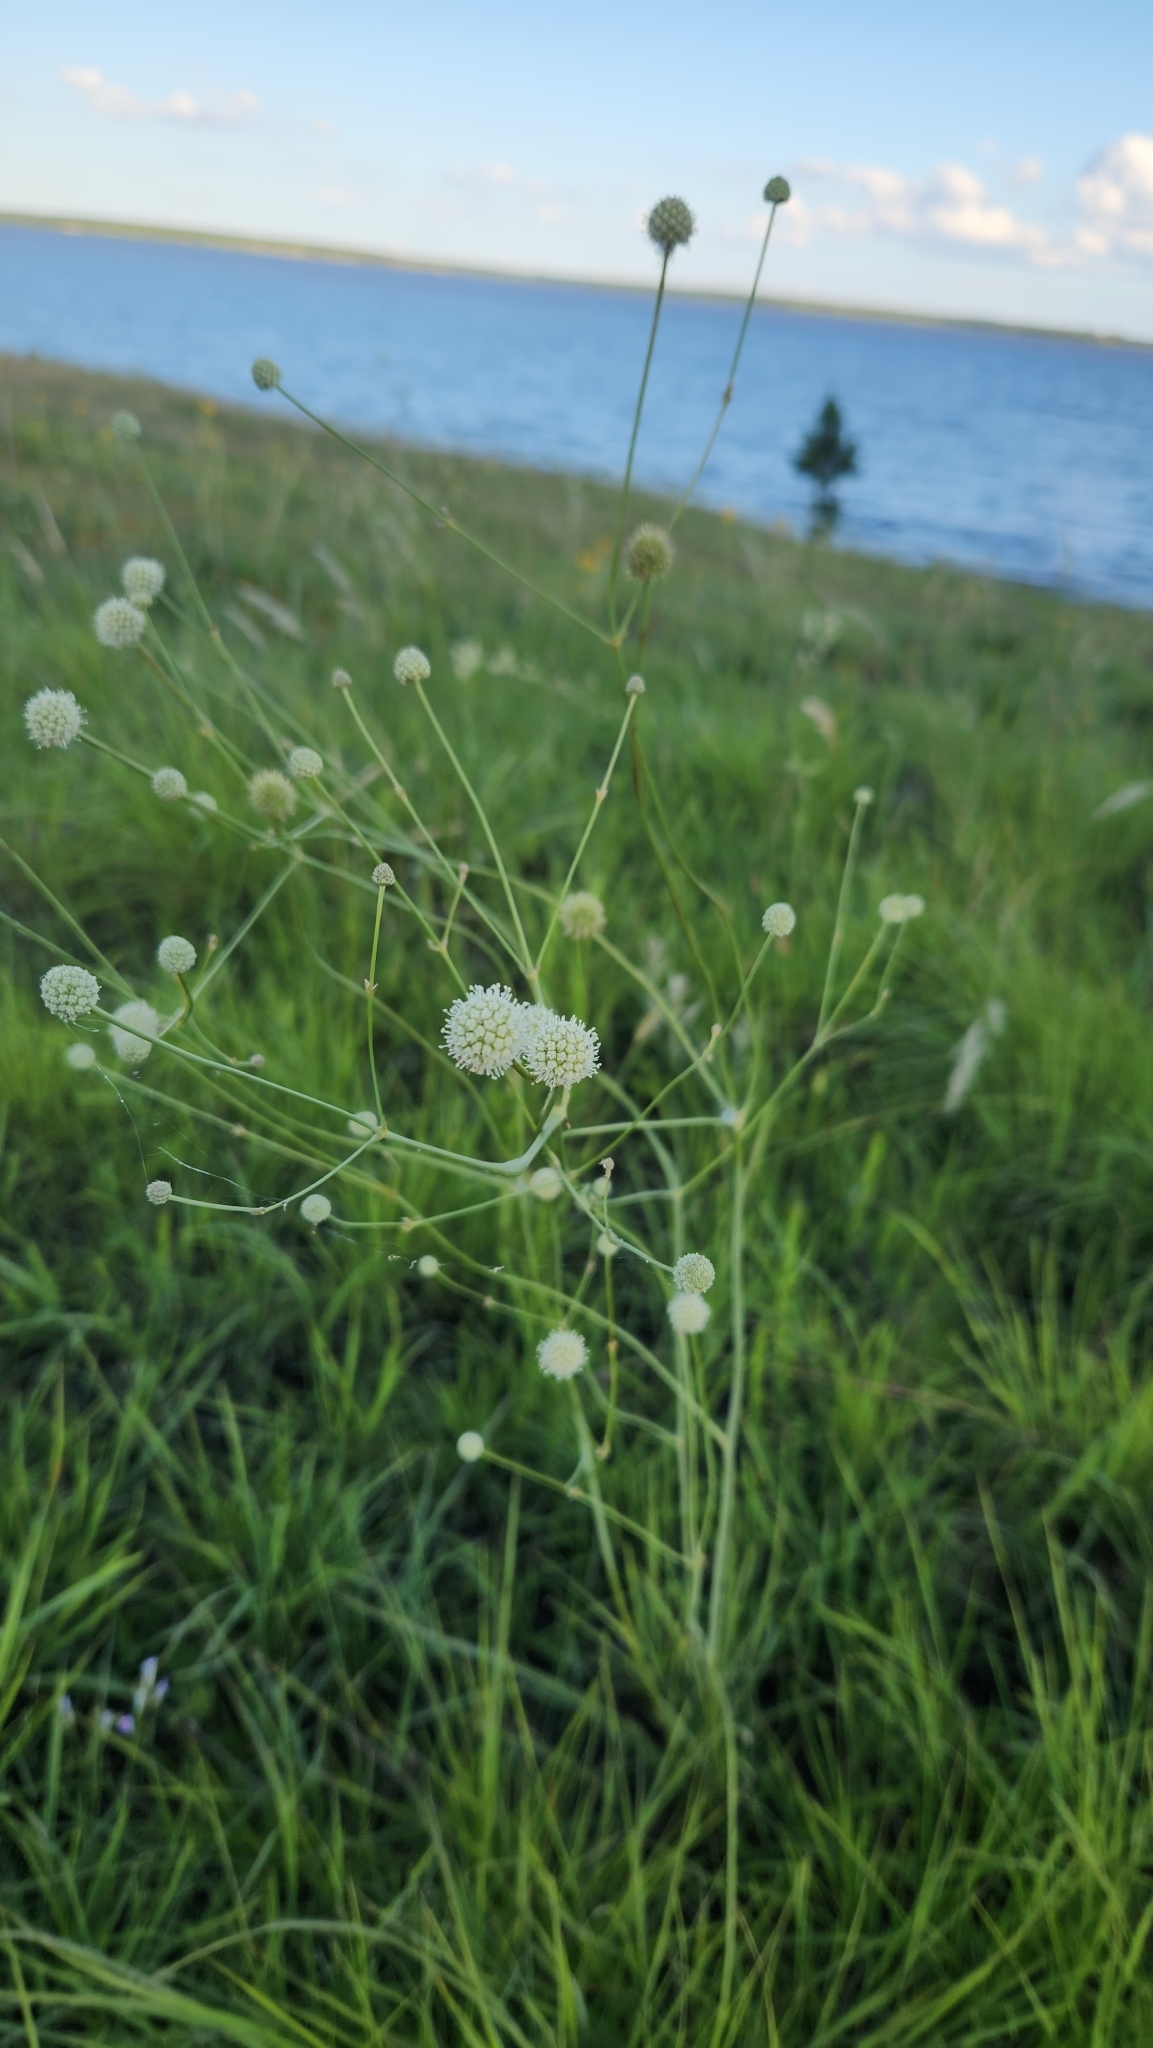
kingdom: Plantae
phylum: Tracheophyta
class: Magnoliopsida
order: Apiales
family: Apiaceae
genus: Eryngium
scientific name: Eryngium luzulifolium
